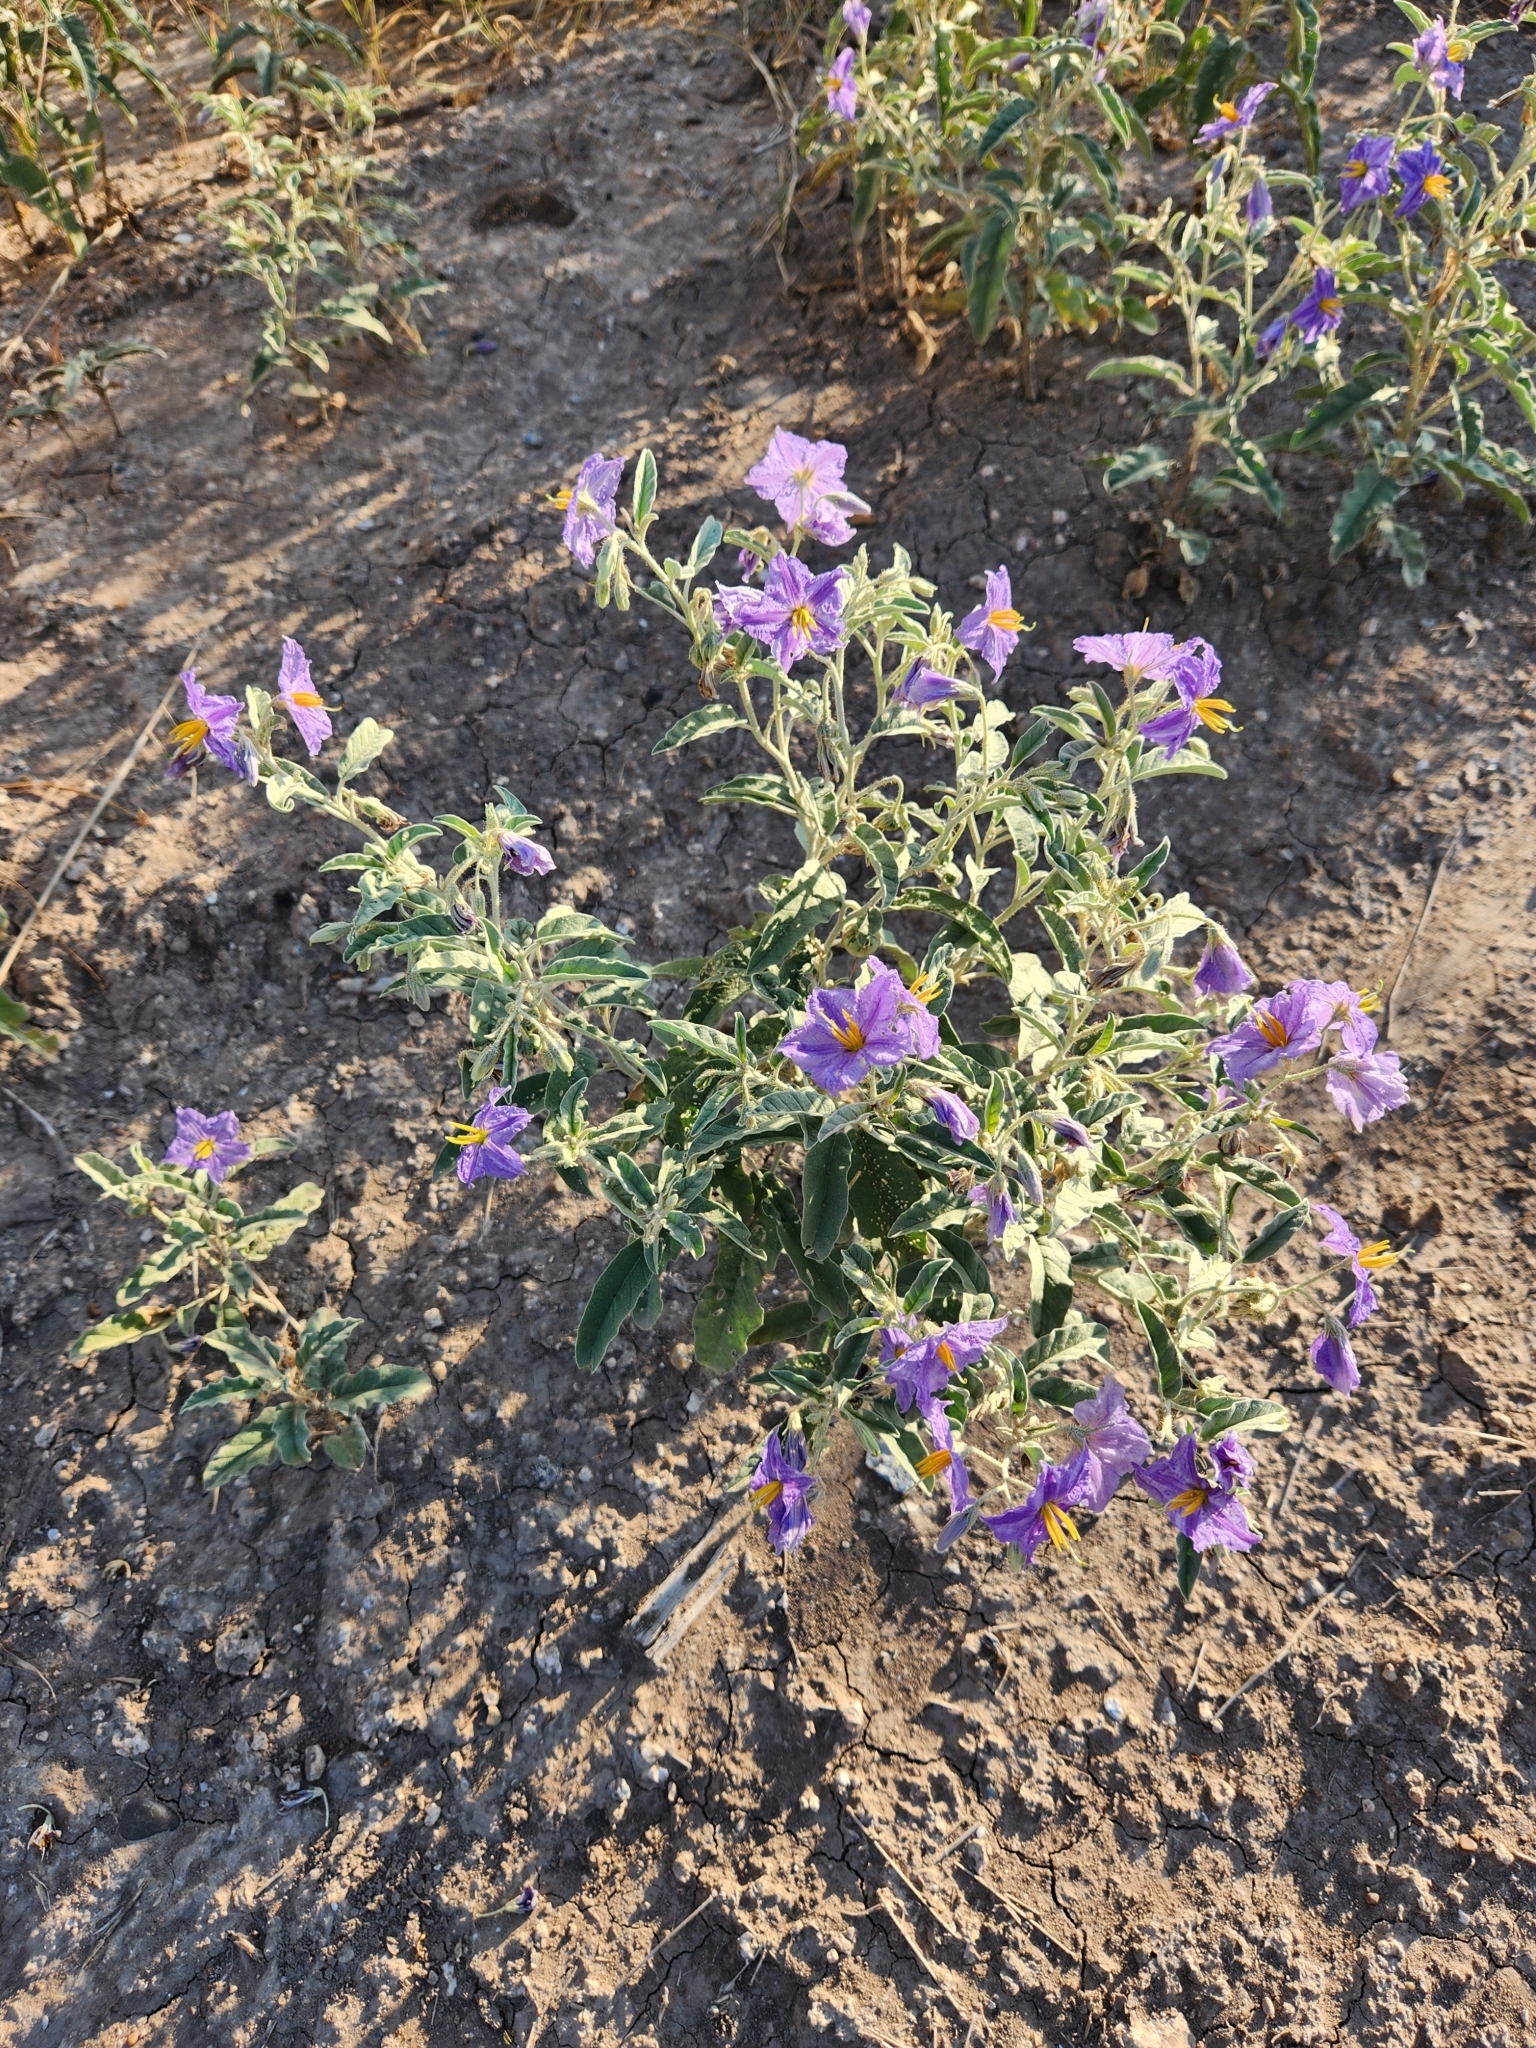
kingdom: Plantae
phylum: Tracheophyta
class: Magnoliopsida
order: Solanales
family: Solanaceae
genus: Solanum
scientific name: Solanum elaeagnifolium
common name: Silverleaf nightshade
